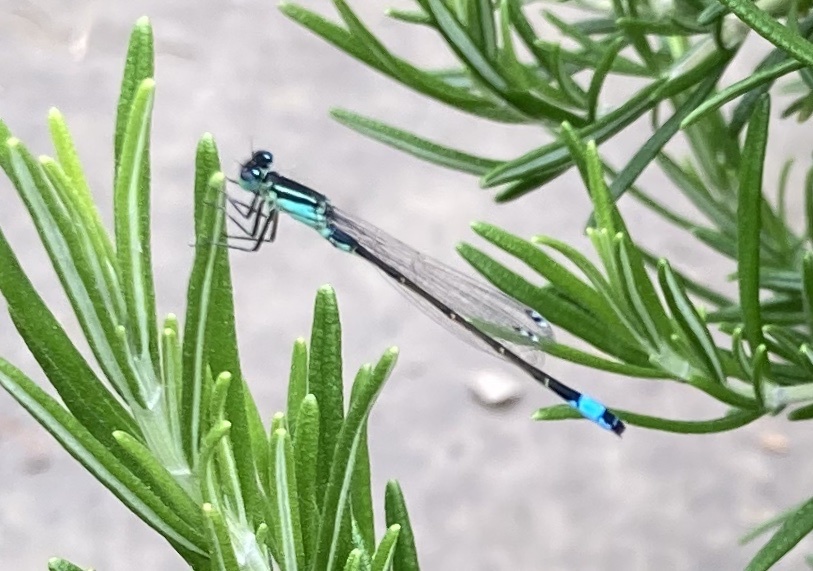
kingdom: Animalia
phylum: Arthropoda
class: Insecta
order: Odonata
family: Coenagrionidae
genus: Ischnura
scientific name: Ischnura elegans
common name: Blue-tailed damselfly
